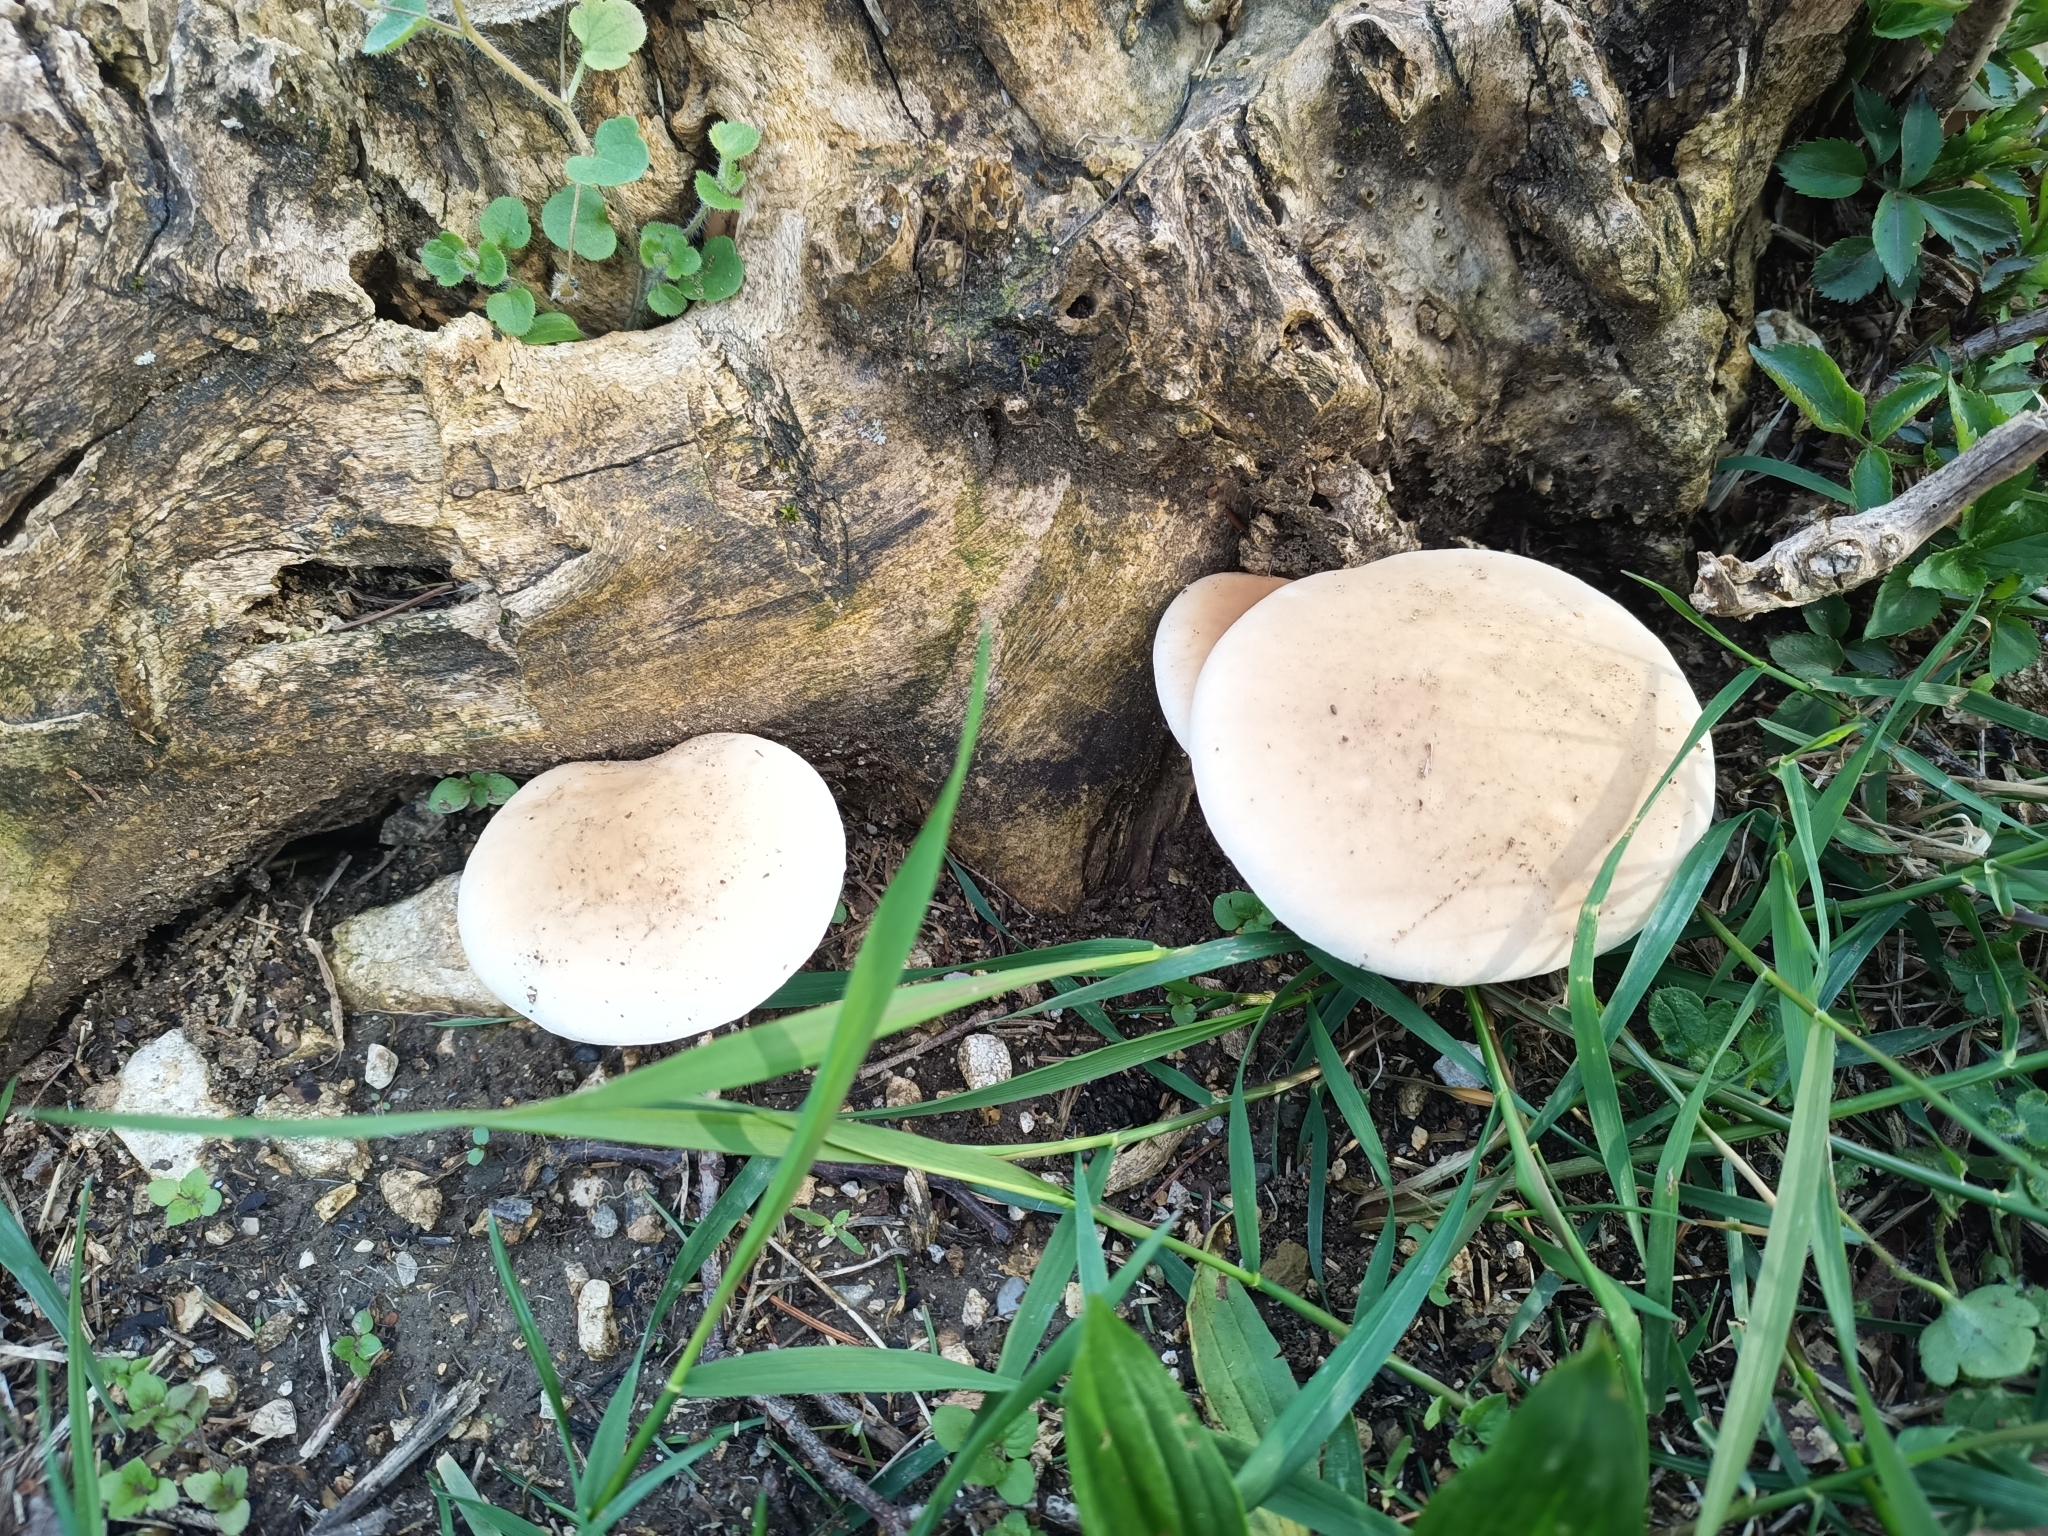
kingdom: Fungi
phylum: Basidiomycota
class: Agaricomycetes
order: Agaricales
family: Tubariaceae
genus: Cyclocybe
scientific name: Cyclocybe cylindracea
